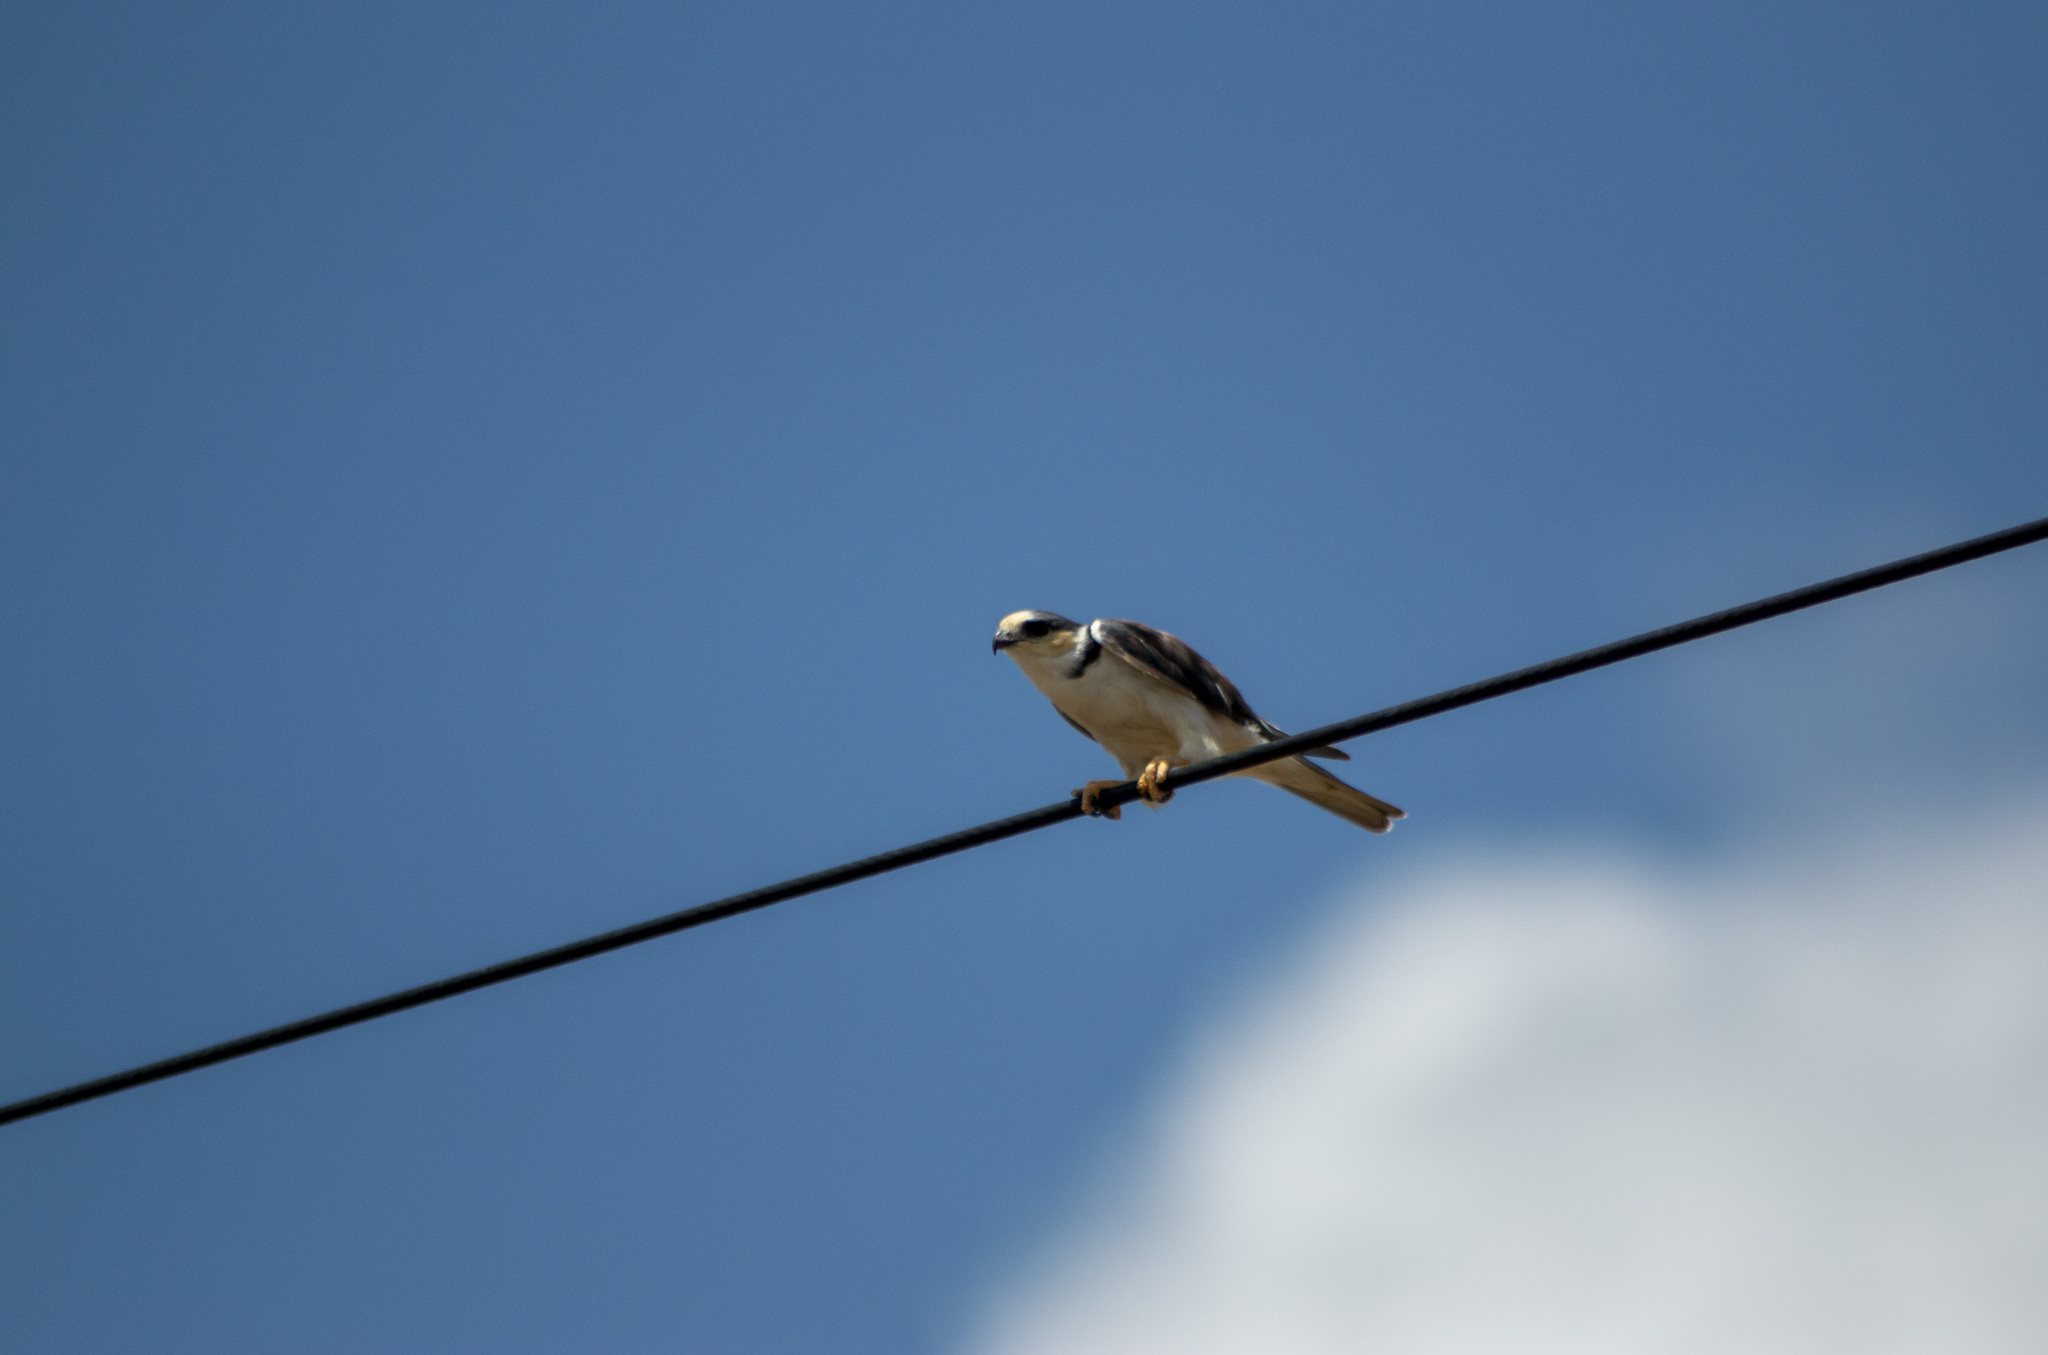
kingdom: Animalia
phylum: Chordata
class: Aves
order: Accipitriformes
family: Accipitridae
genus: Gampsonyx
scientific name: Gampsonyx swainsonii
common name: Pearl kite
